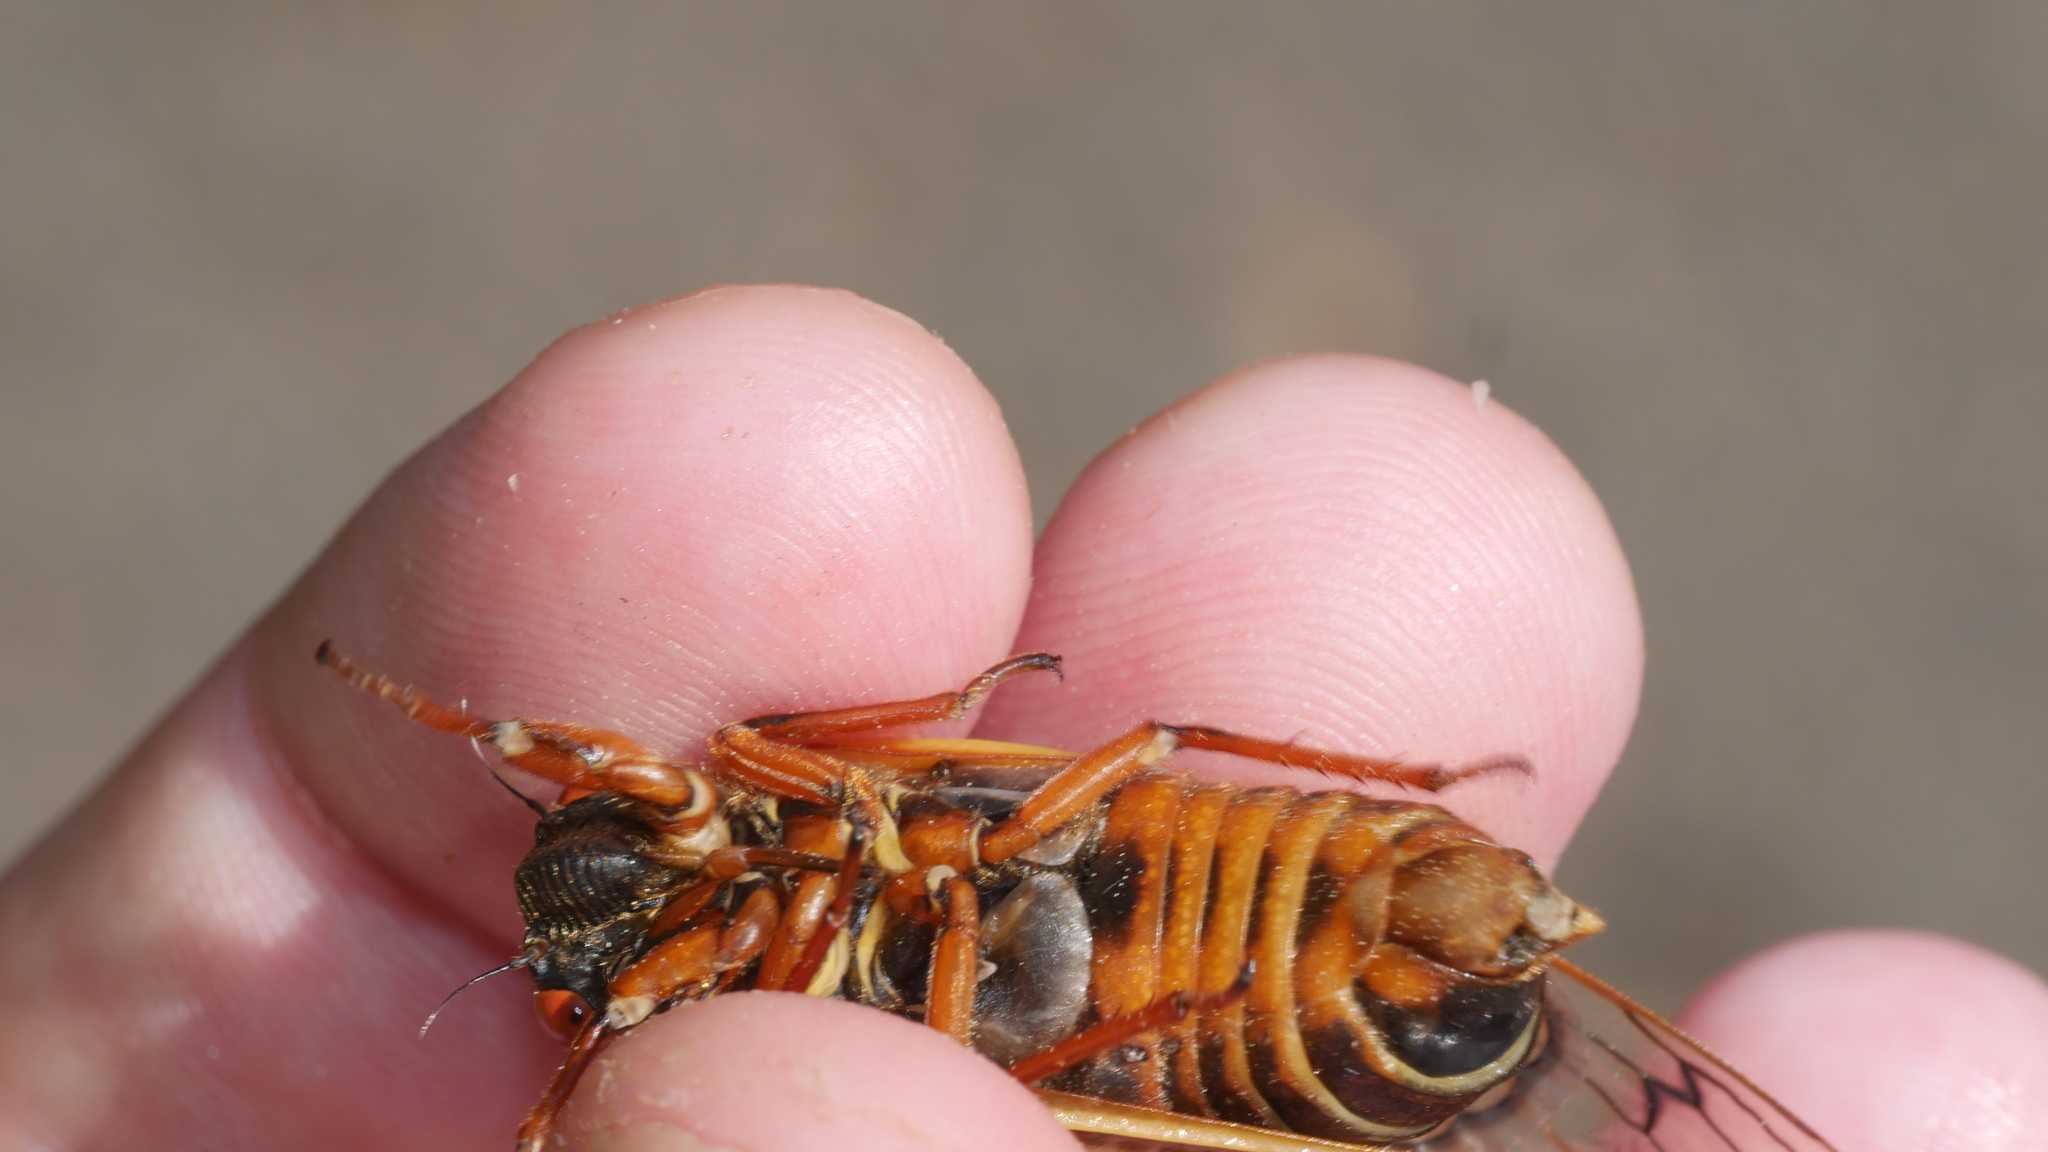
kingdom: Animalia
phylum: Arthropoda
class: Insecta
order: Hemiptera
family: Cicadidae
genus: Magicicada
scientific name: Magicicada septendecim
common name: Periodical cicada
